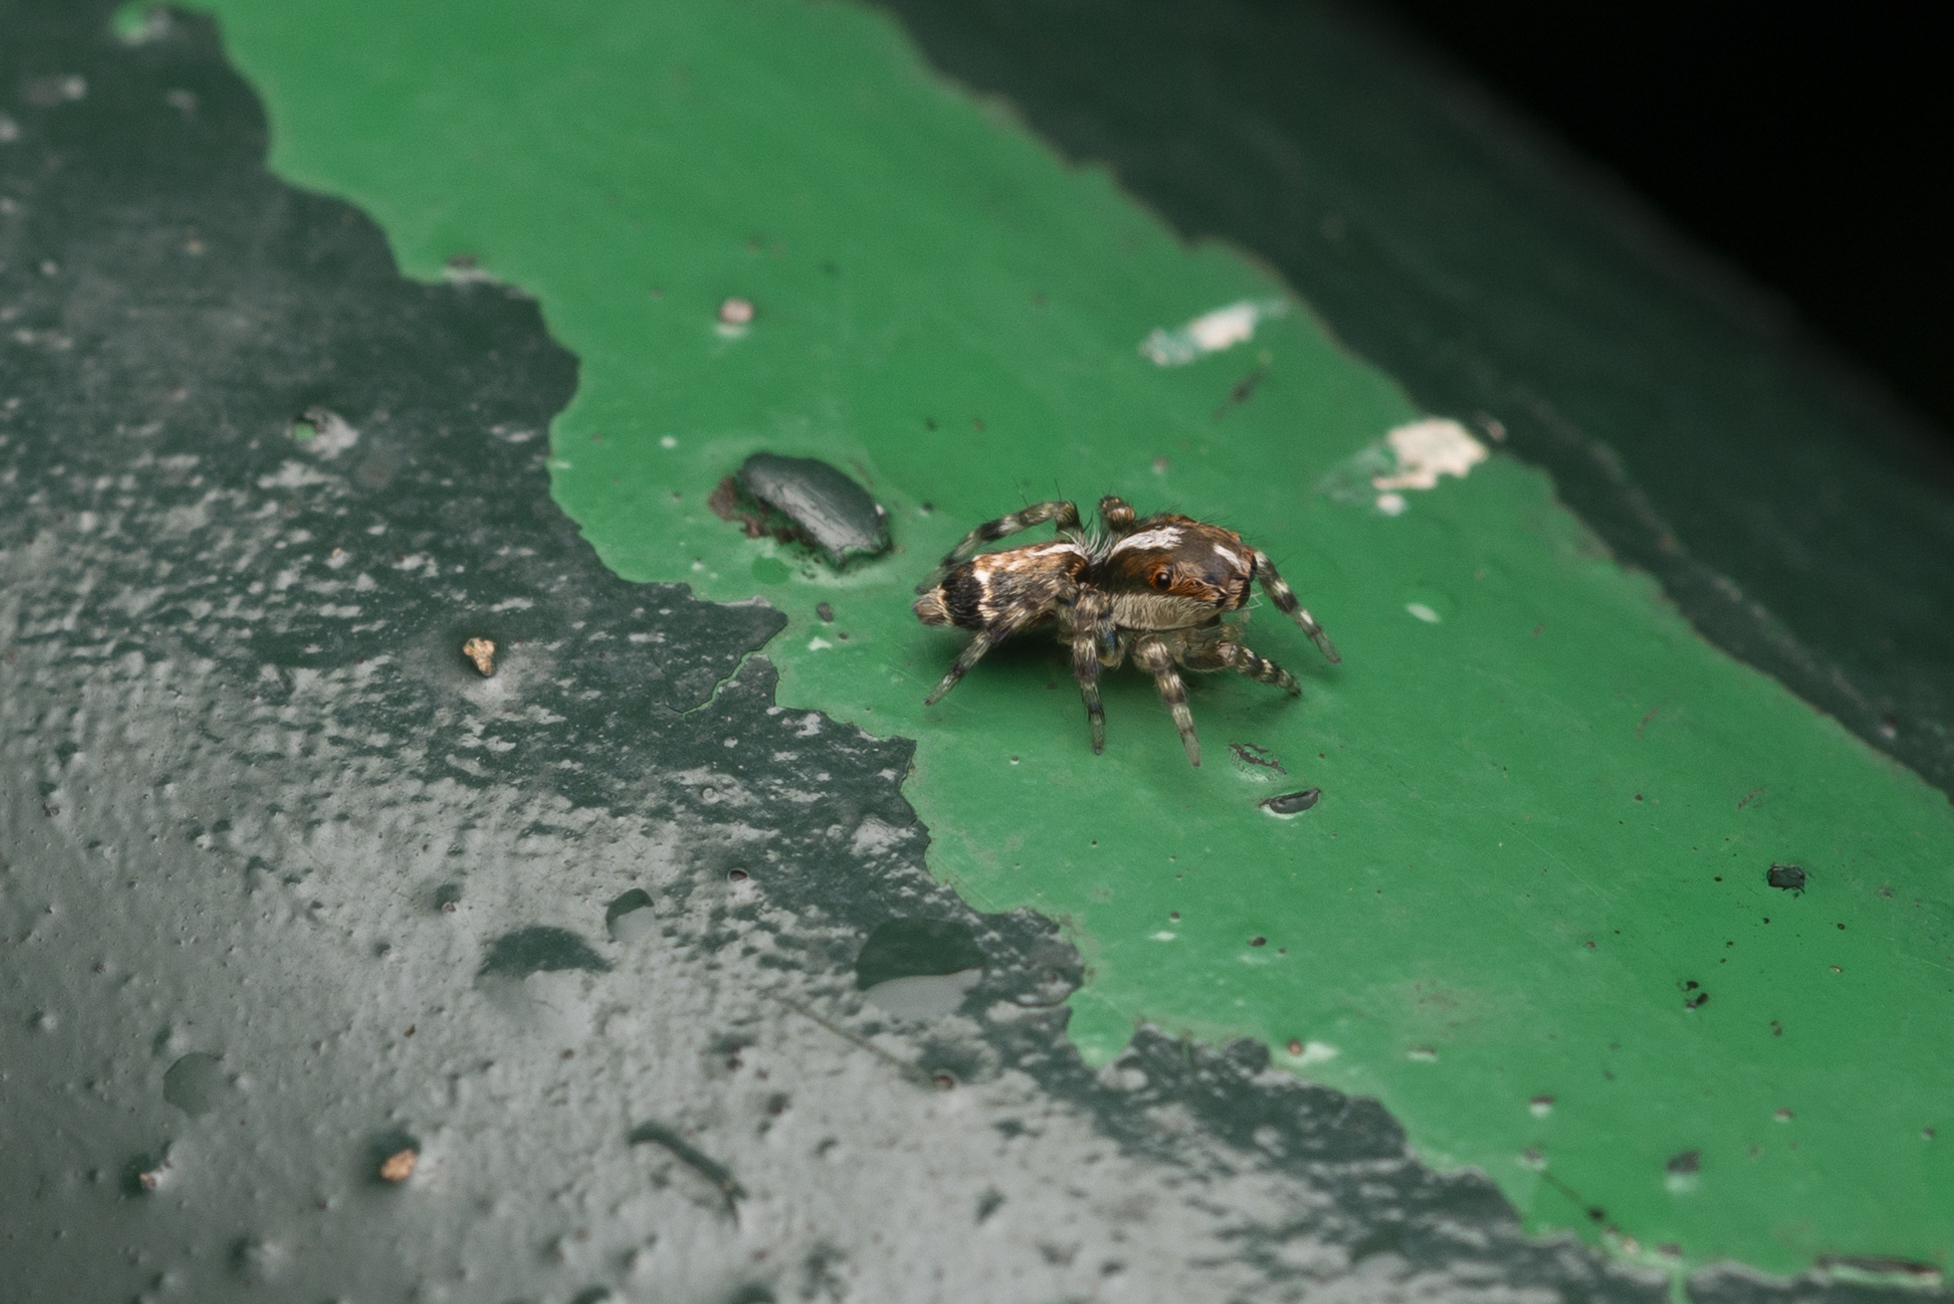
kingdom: Animalia
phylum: Arthropoda
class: Arachnida
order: Araneae
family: Salticidae
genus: Thyene
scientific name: Thyene orientalis
